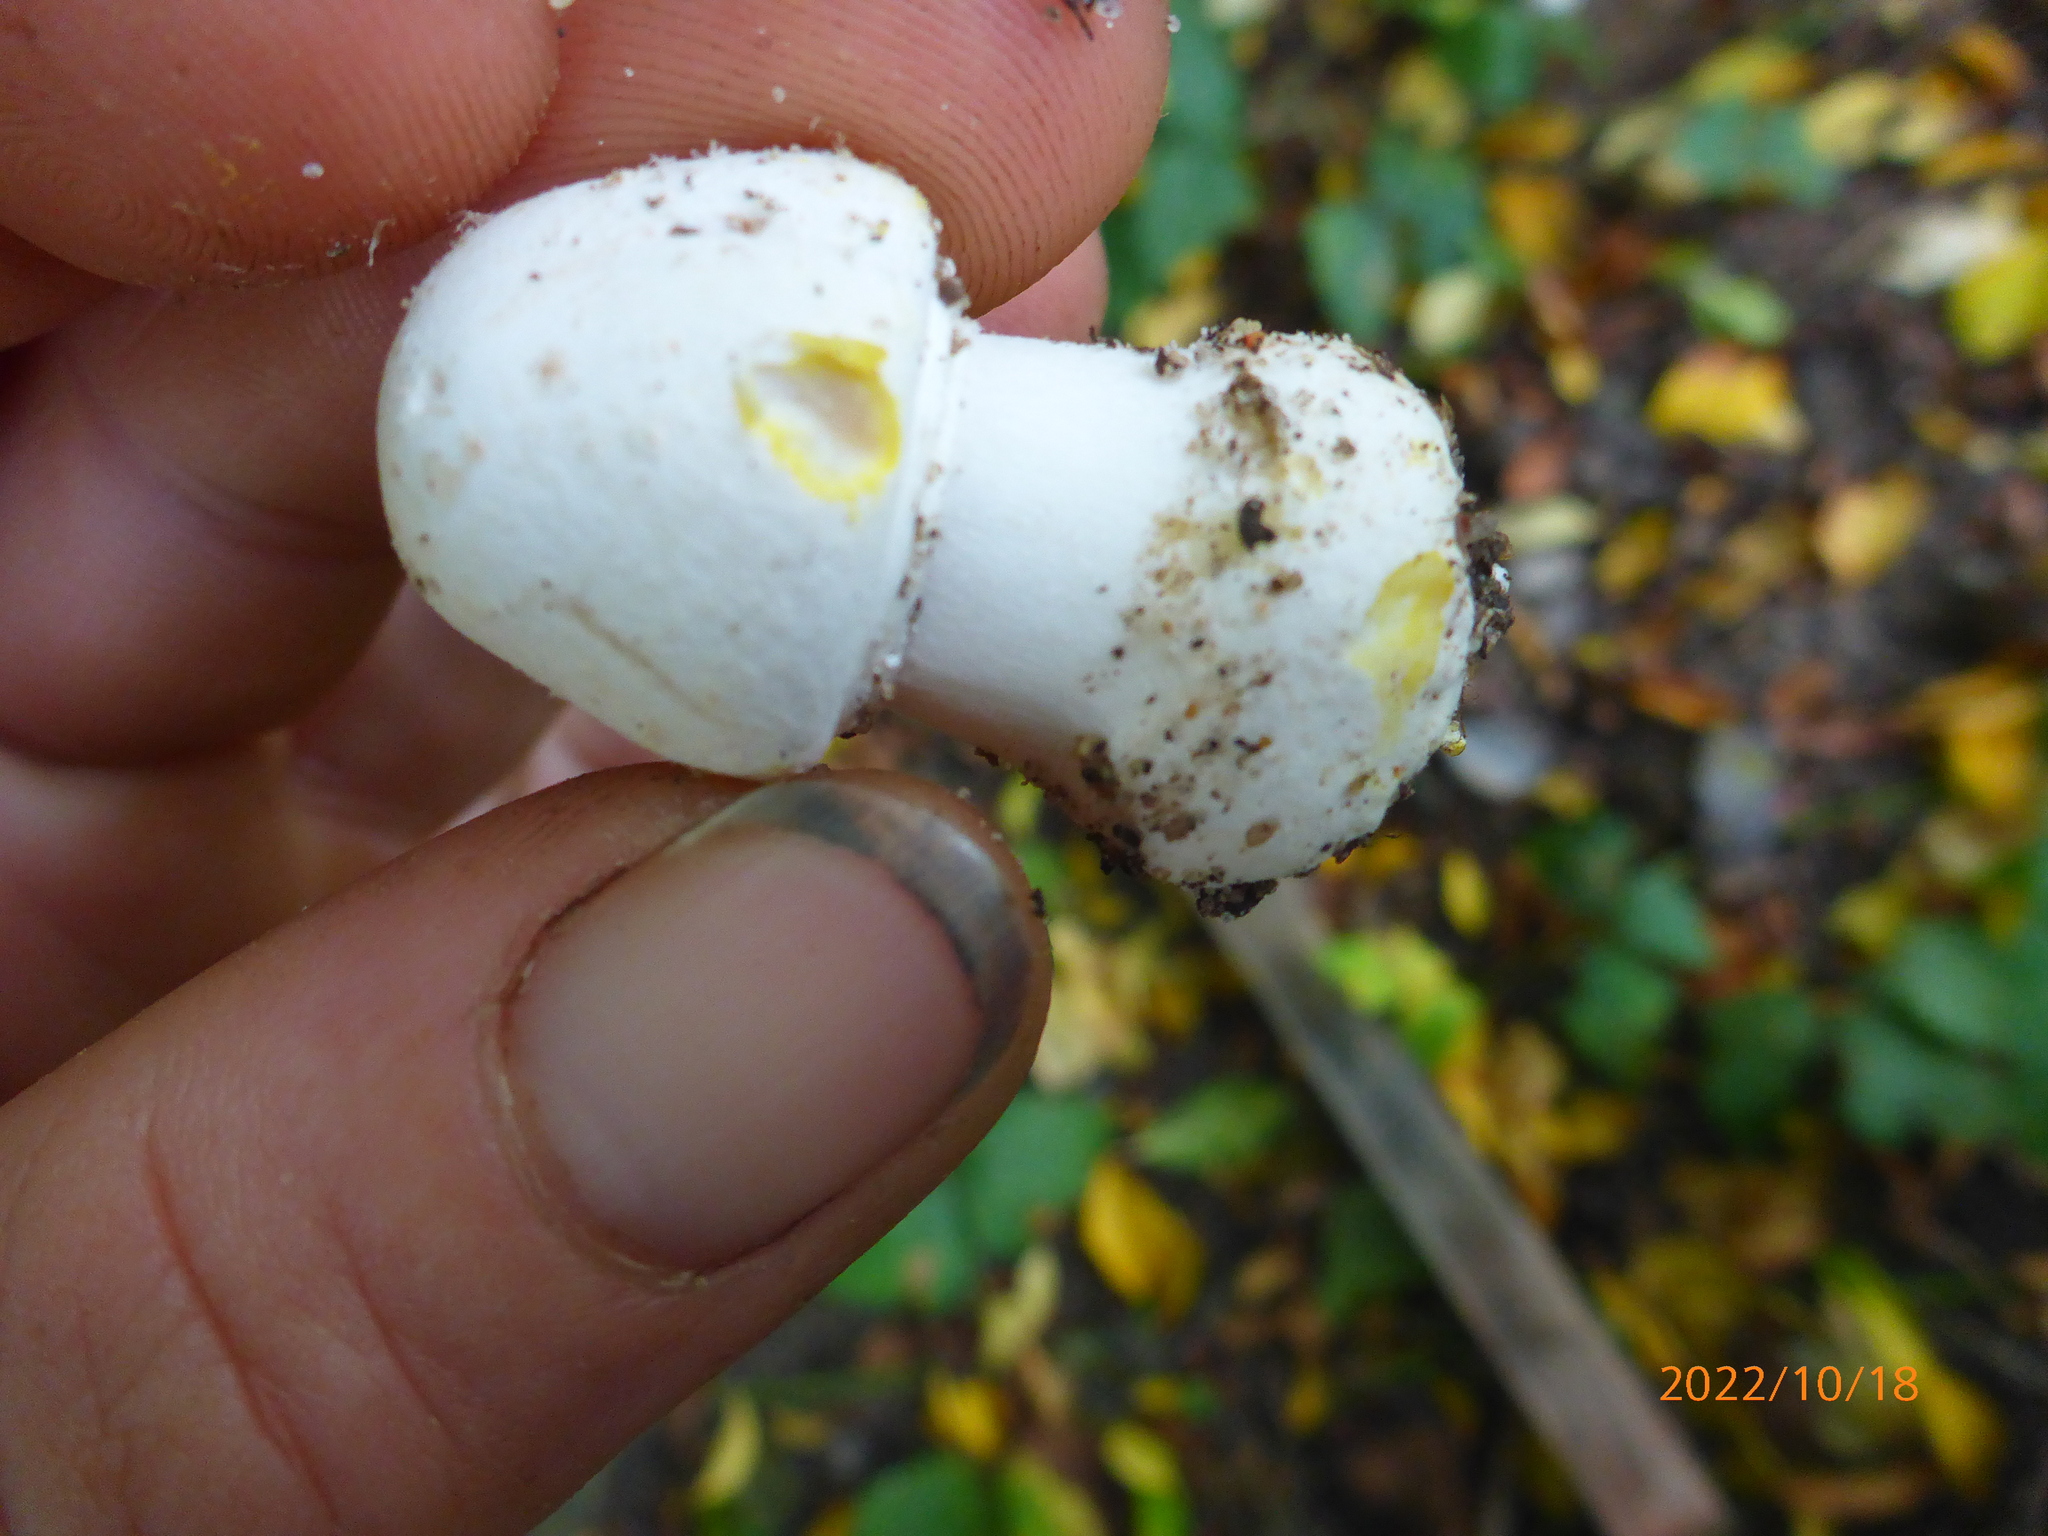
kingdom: Fungi
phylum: Basidiomycota
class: Agaricomycetes
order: Agaricales
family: Agaricaceae
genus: Agaricus
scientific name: Agaricus xanthodermus
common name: Yellow stainer
